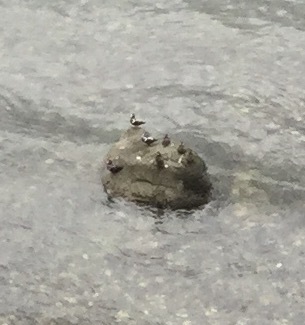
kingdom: Animalia
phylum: Chordata
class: Aves
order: Anseriformes
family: Anatidae
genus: Histrionicus
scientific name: Histrionicus histrionicus
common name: Harlequin duck
